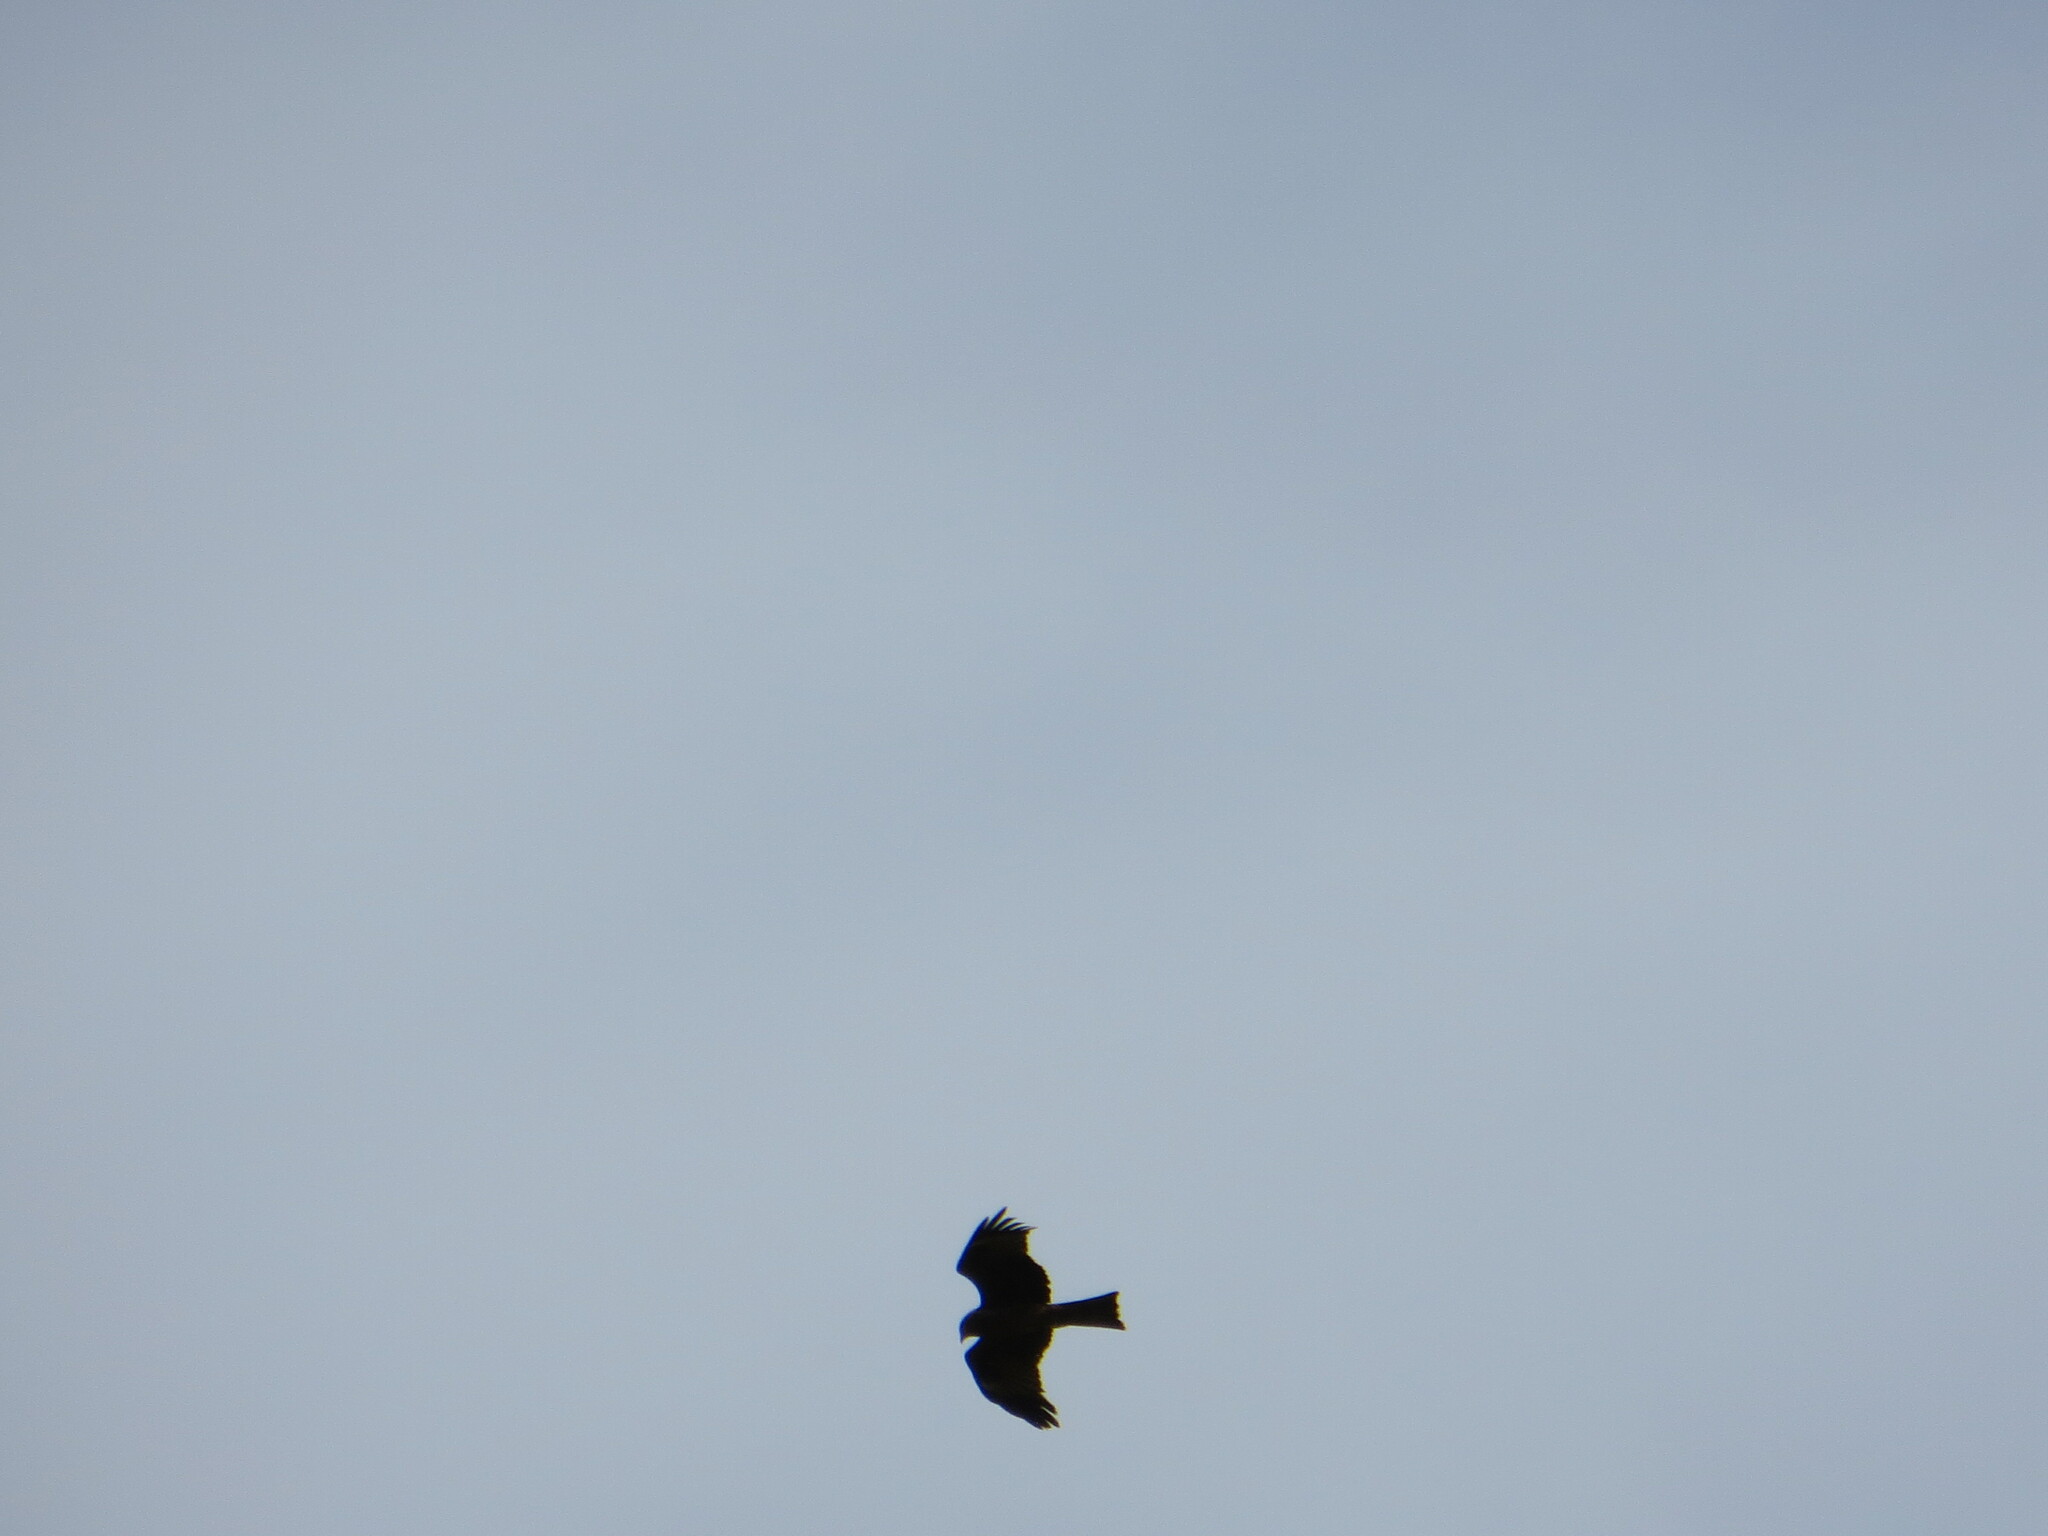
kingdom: Animalia
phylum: Chordata
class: Aves
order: Accipitriformes
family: Accipitridae
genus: Milvus
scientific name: Milvus migrans
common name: Black kite
